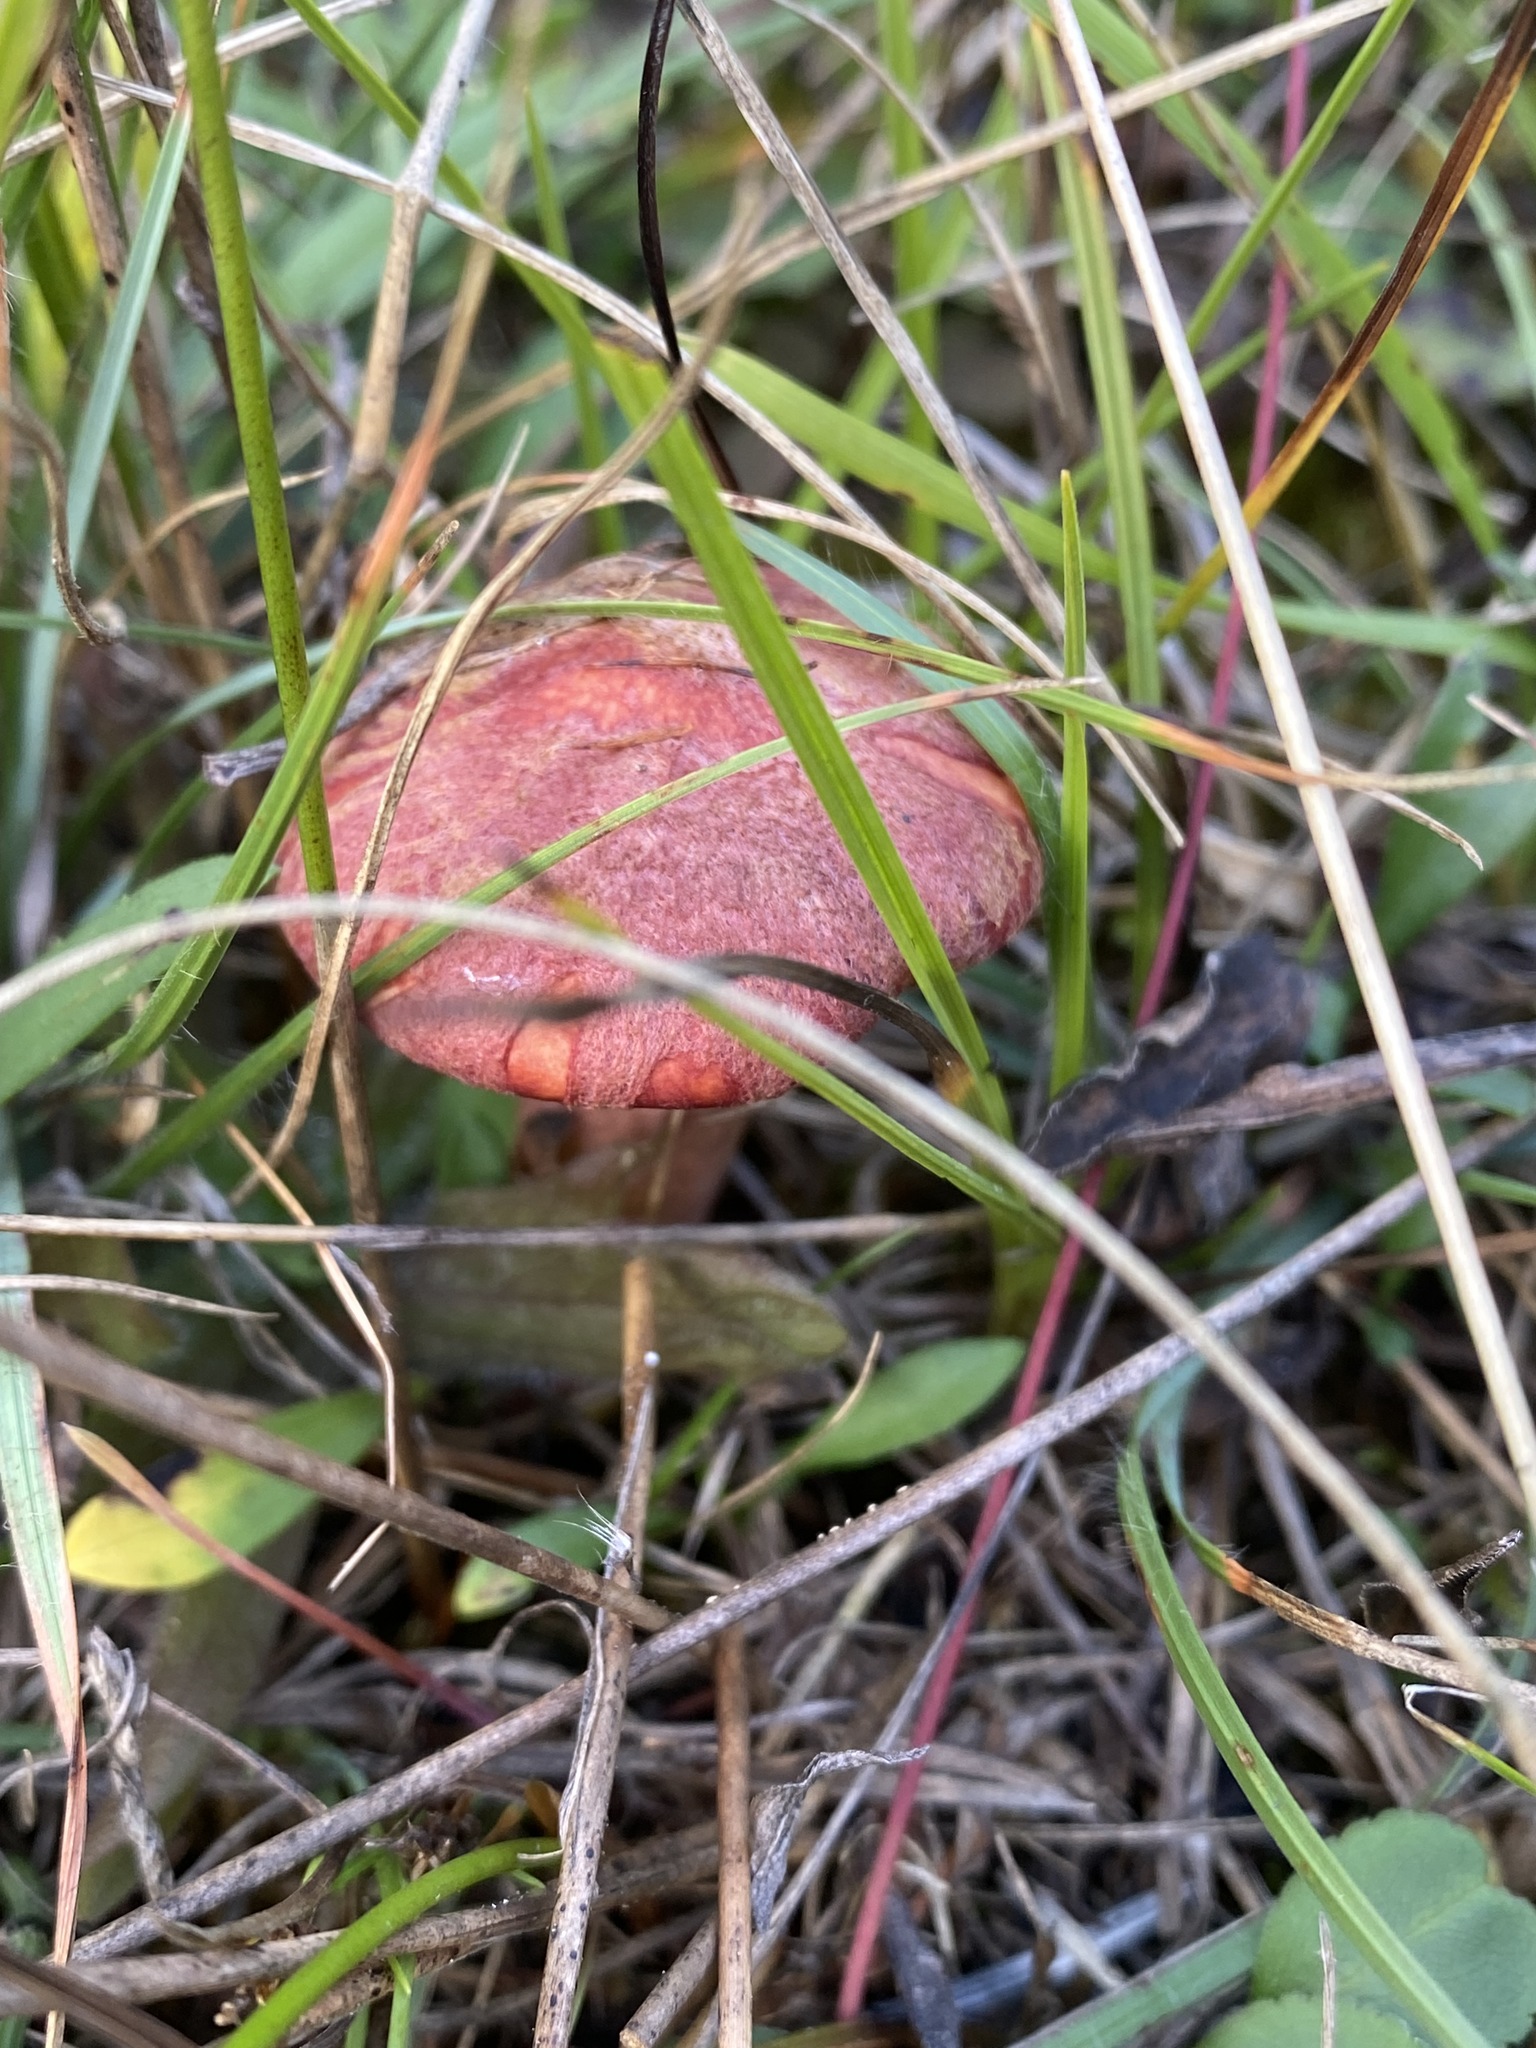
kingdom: Fungi
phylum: Basidiomycota
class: Agaricomycetes
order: Boletales
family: Suillaceae
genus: Boletinus
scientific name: Boletinus spectabilis
